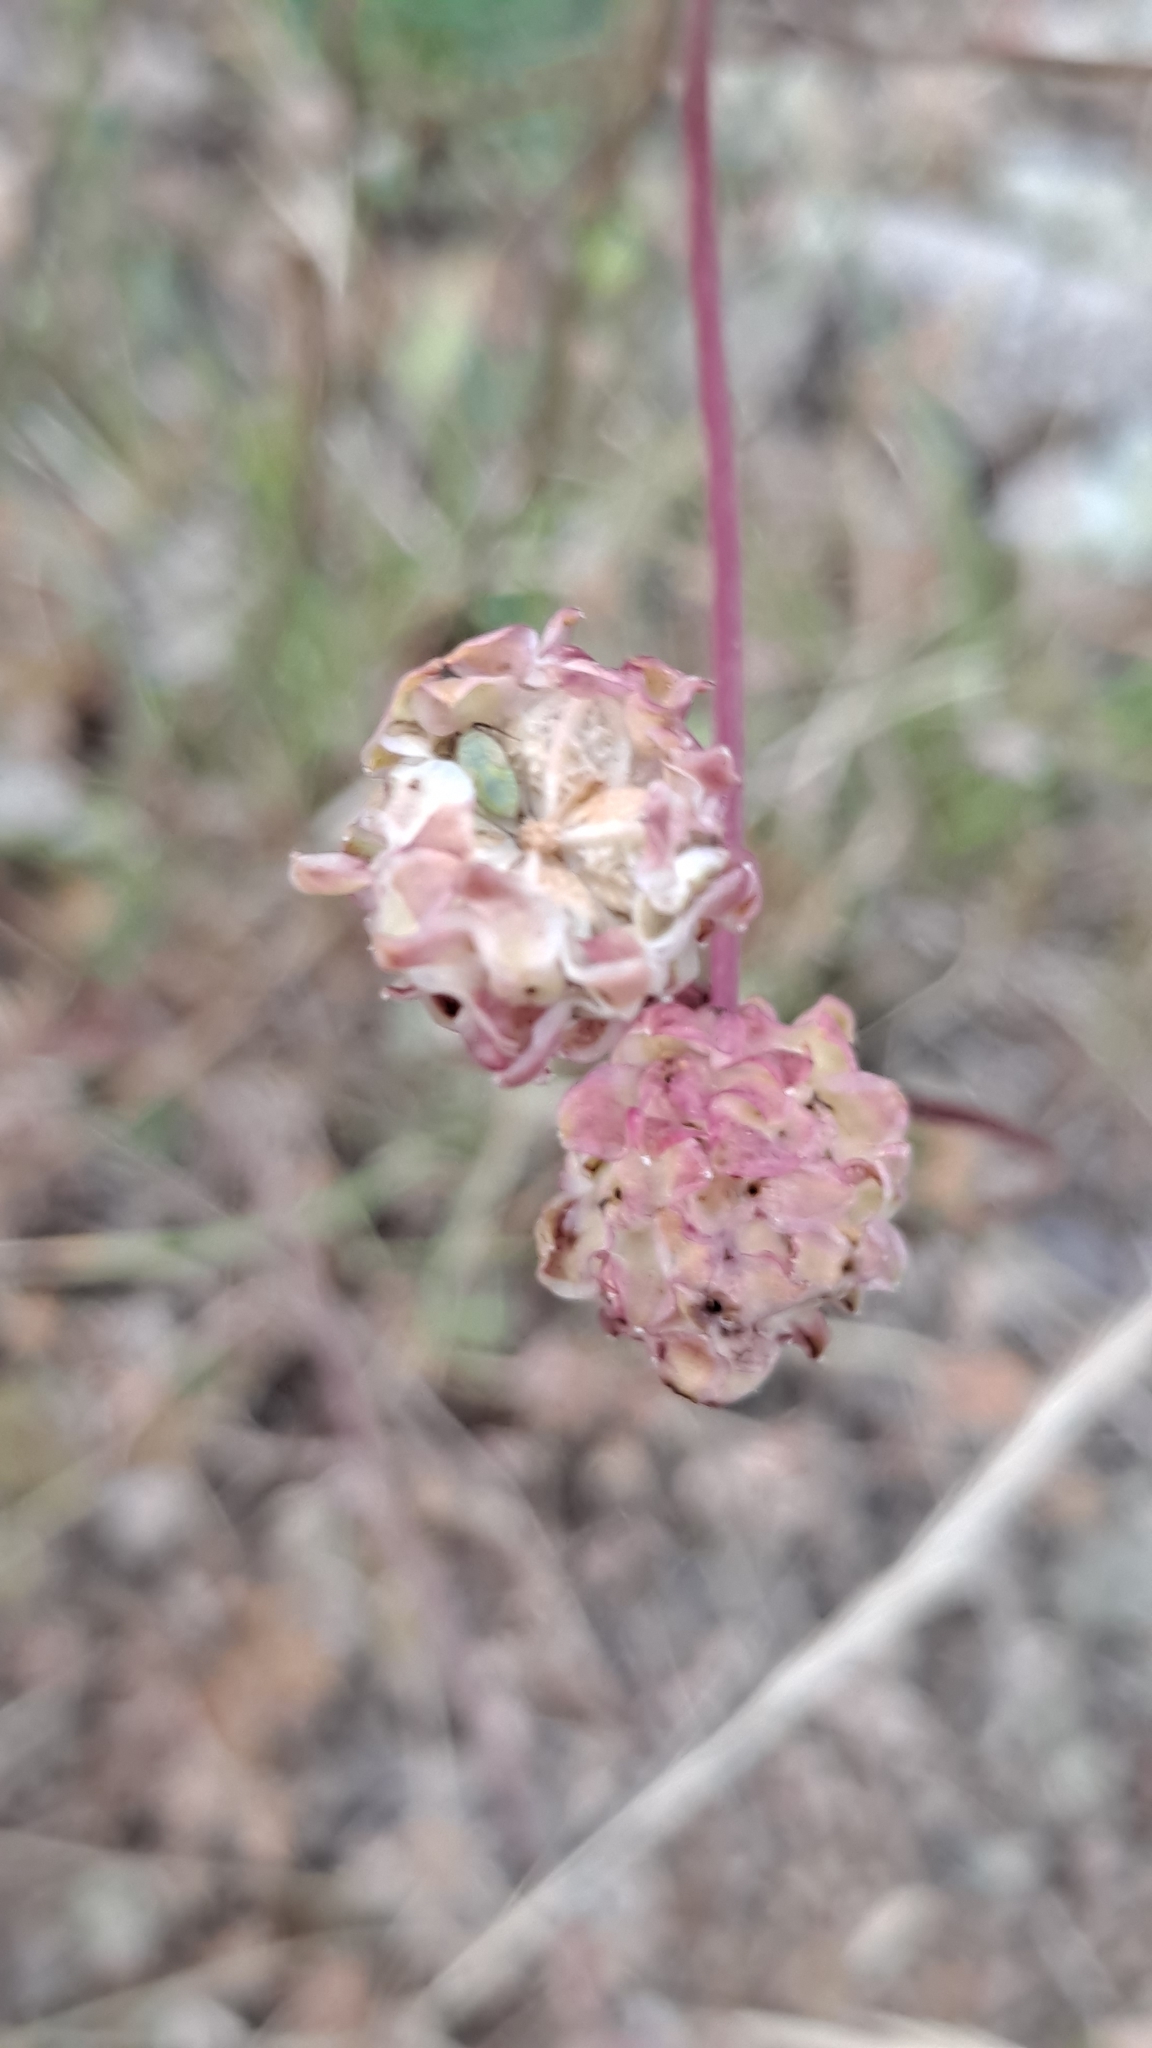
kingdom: Plantae
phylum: Tracheophyta
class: Magnoliopsida
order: Rosales
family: Rosaceae
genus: Poterium
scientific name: Poterium sanguisorba
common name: Salad burnet
